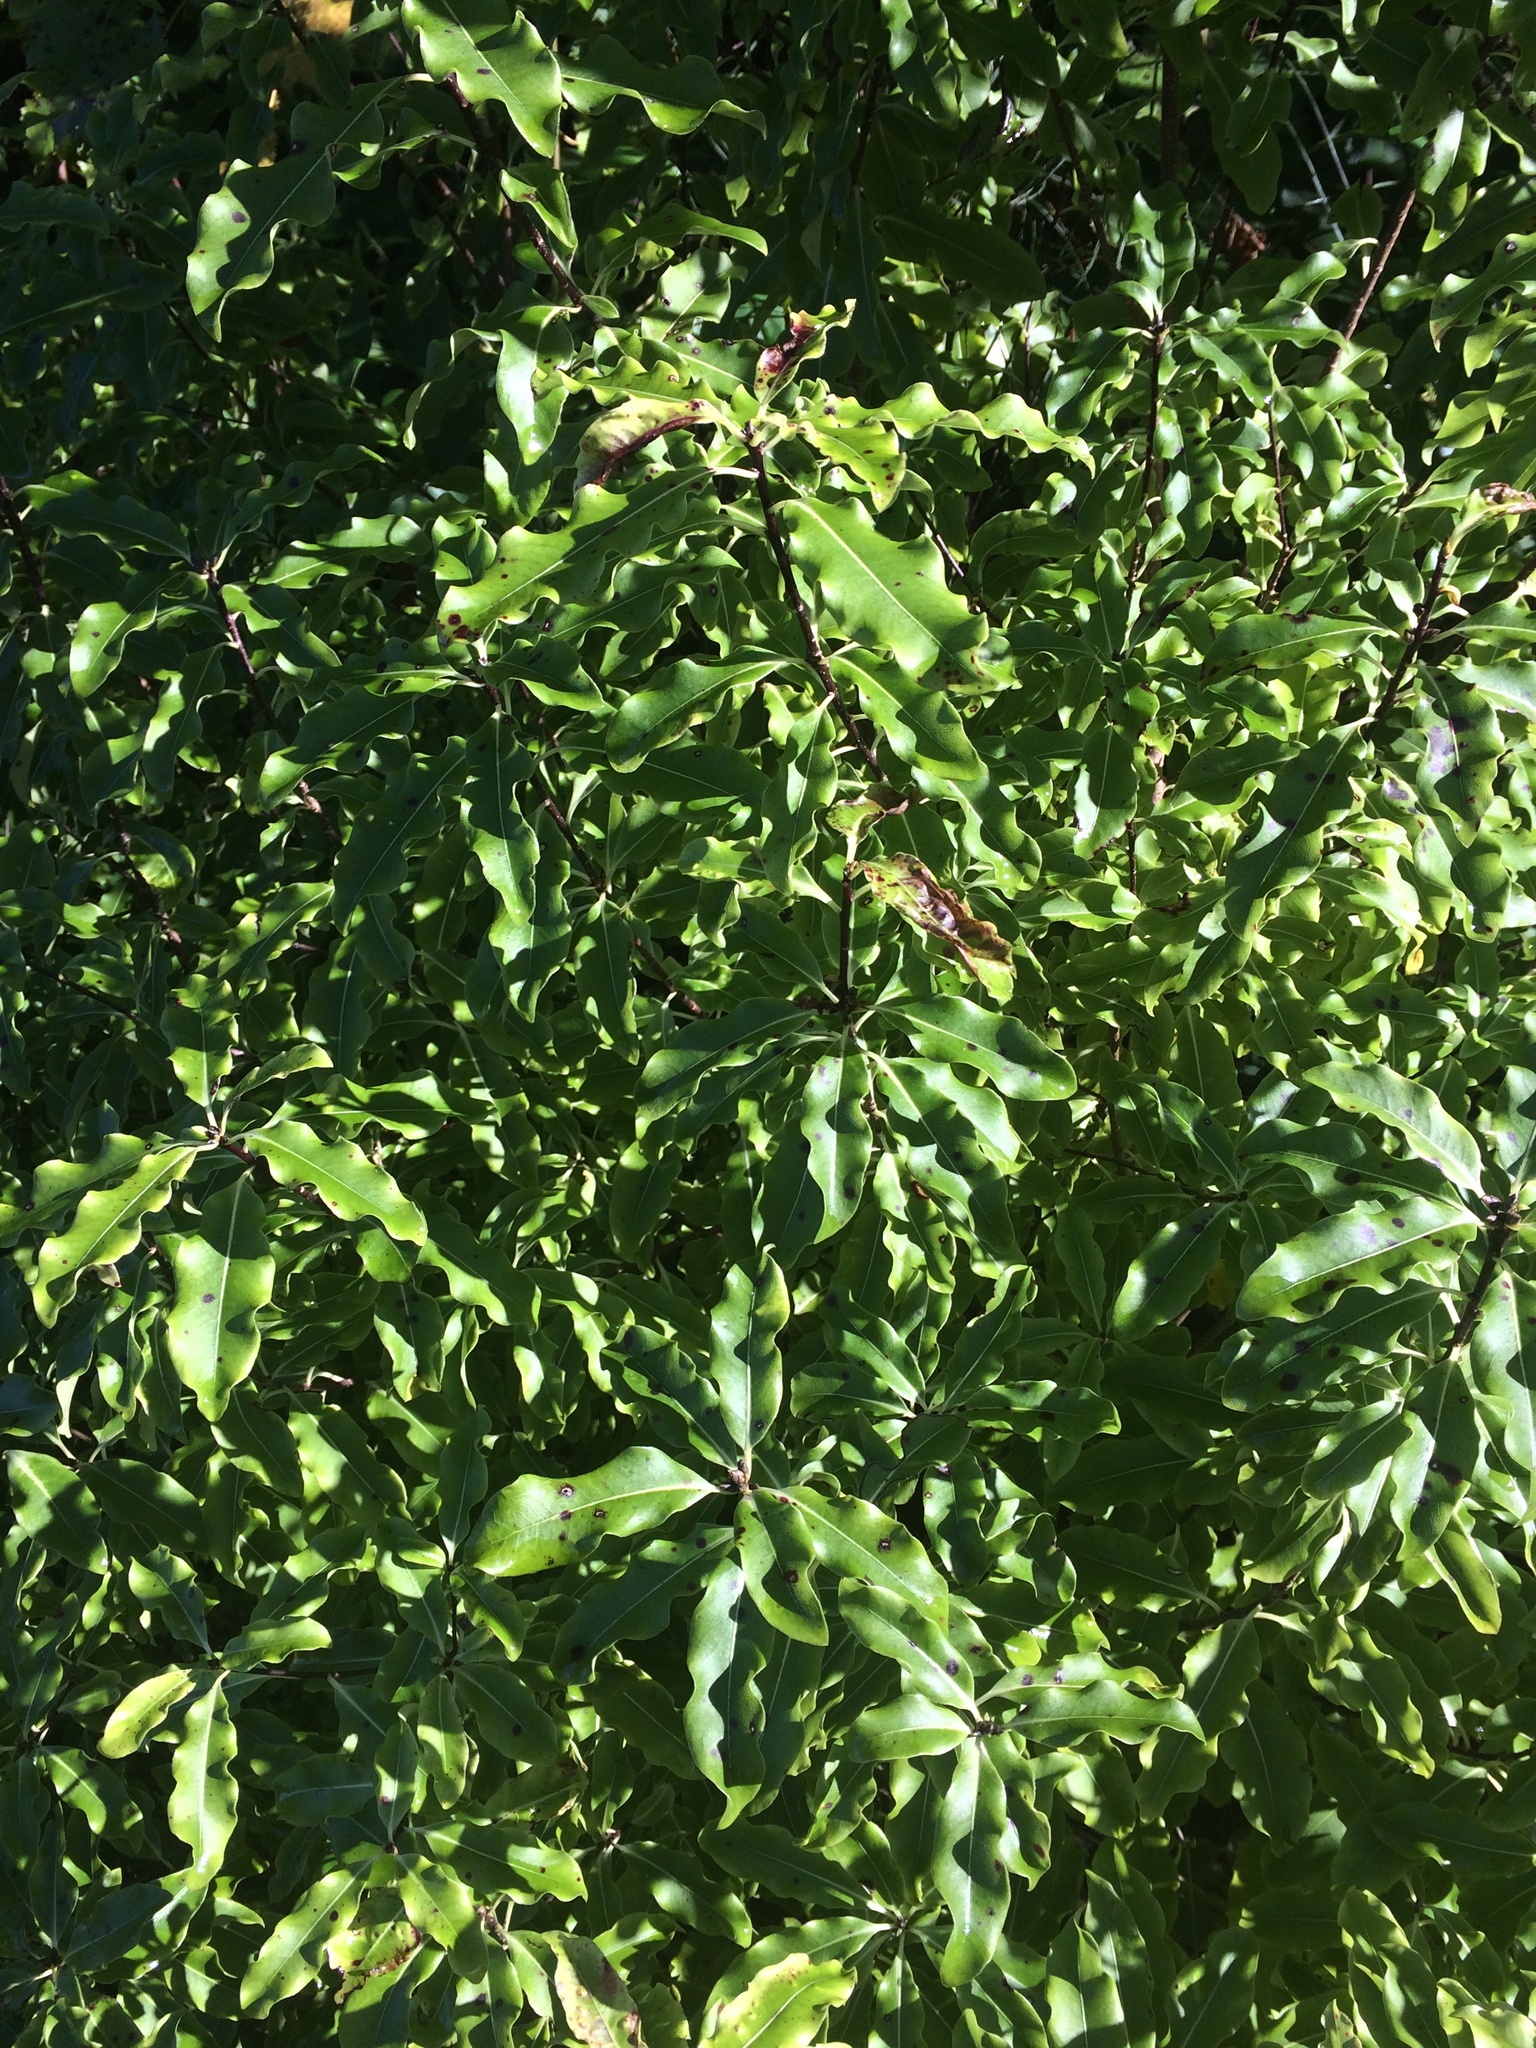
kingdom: Plantae
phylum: Tracheophyta
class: Magnoliopsida
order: Apiales
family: Pittosporaceae
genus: Pittosporum
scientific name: Pittosporum eugenioides
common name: Lemonwood
